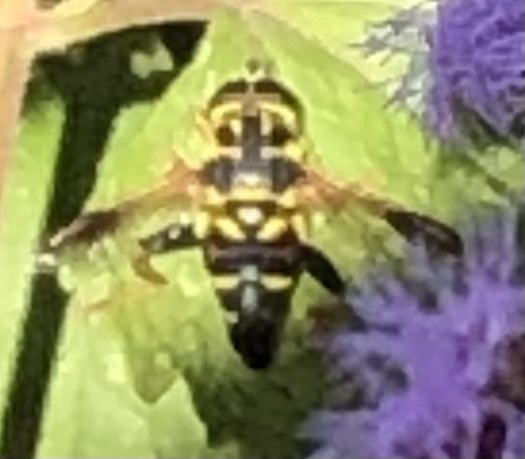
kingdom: Animalia
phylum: Arthropoda
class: Insecta
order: Diptera
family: Syrphidae
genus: Meromacrus
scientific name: Meromacrus acutus
